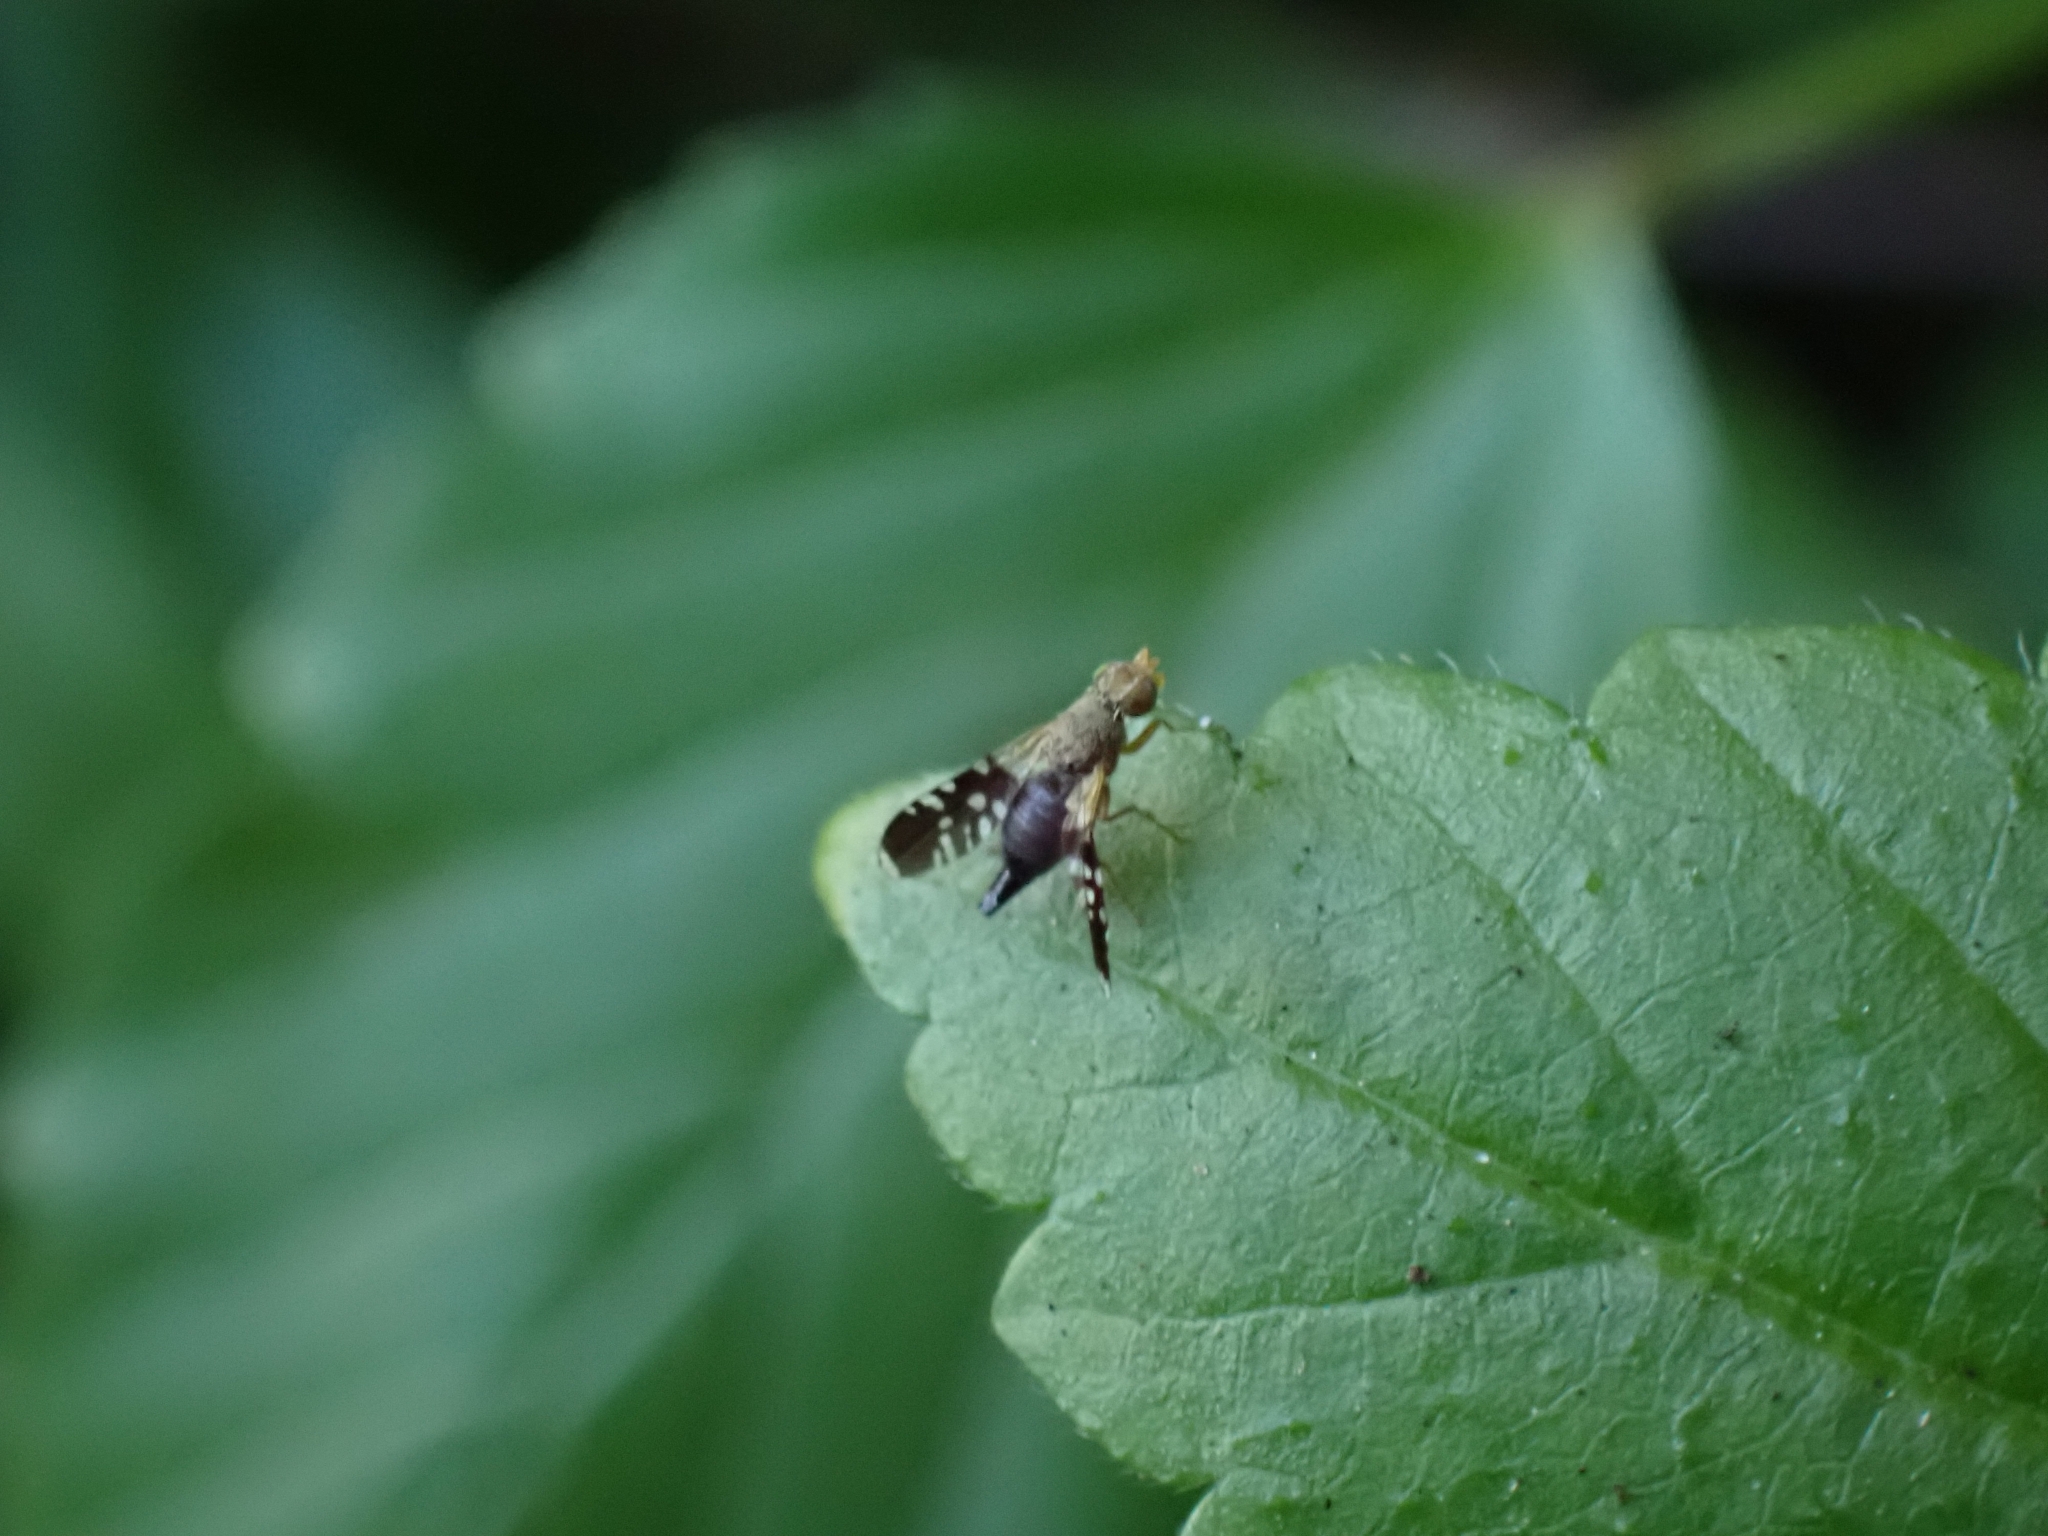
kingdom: Animalia
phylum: Arthropoda
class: Insecta
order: Diptera
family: Tephritidae
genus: Spathulina
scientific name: Spathulina acroleuca
